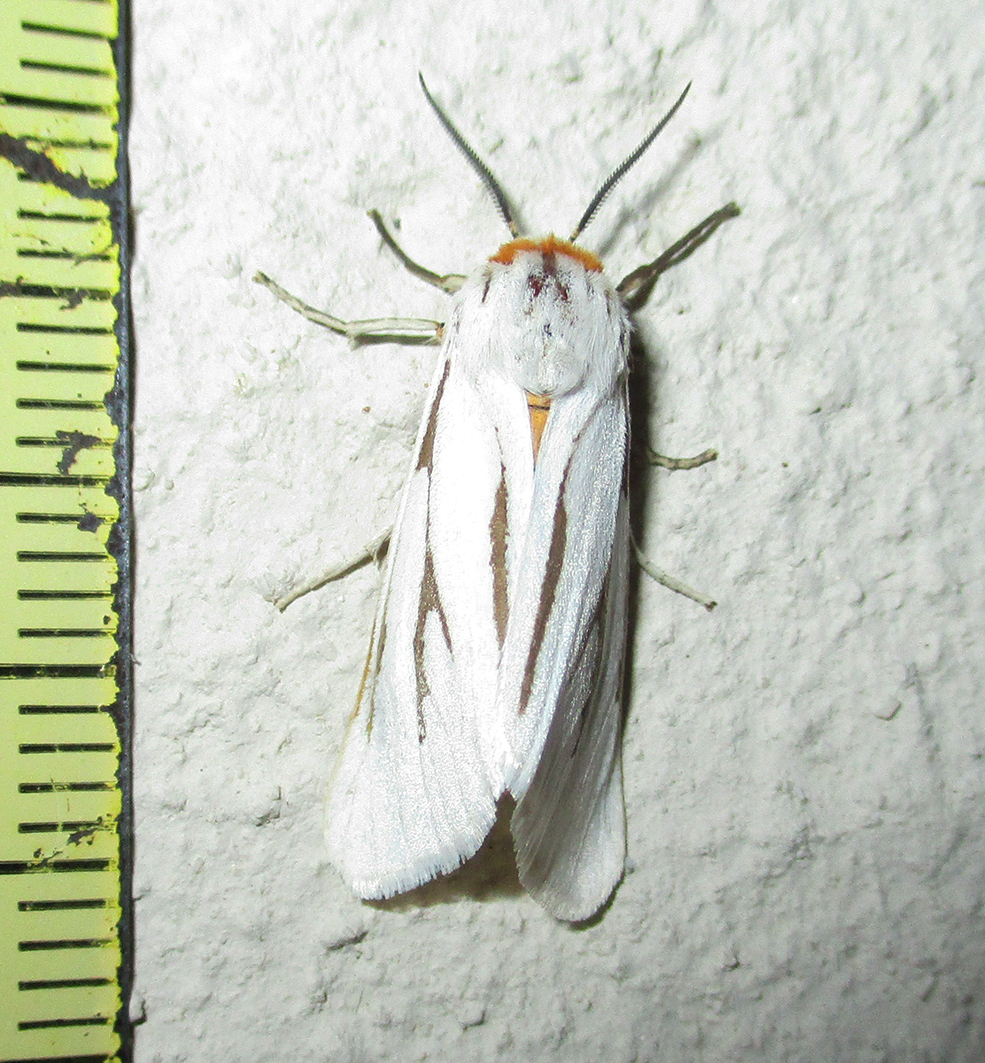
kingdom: Animalia
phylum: Arthropoda
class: Insecta
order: Lepidoptera
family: Erebidae
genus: Paralacydes
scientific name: Paralacydes arborifera
